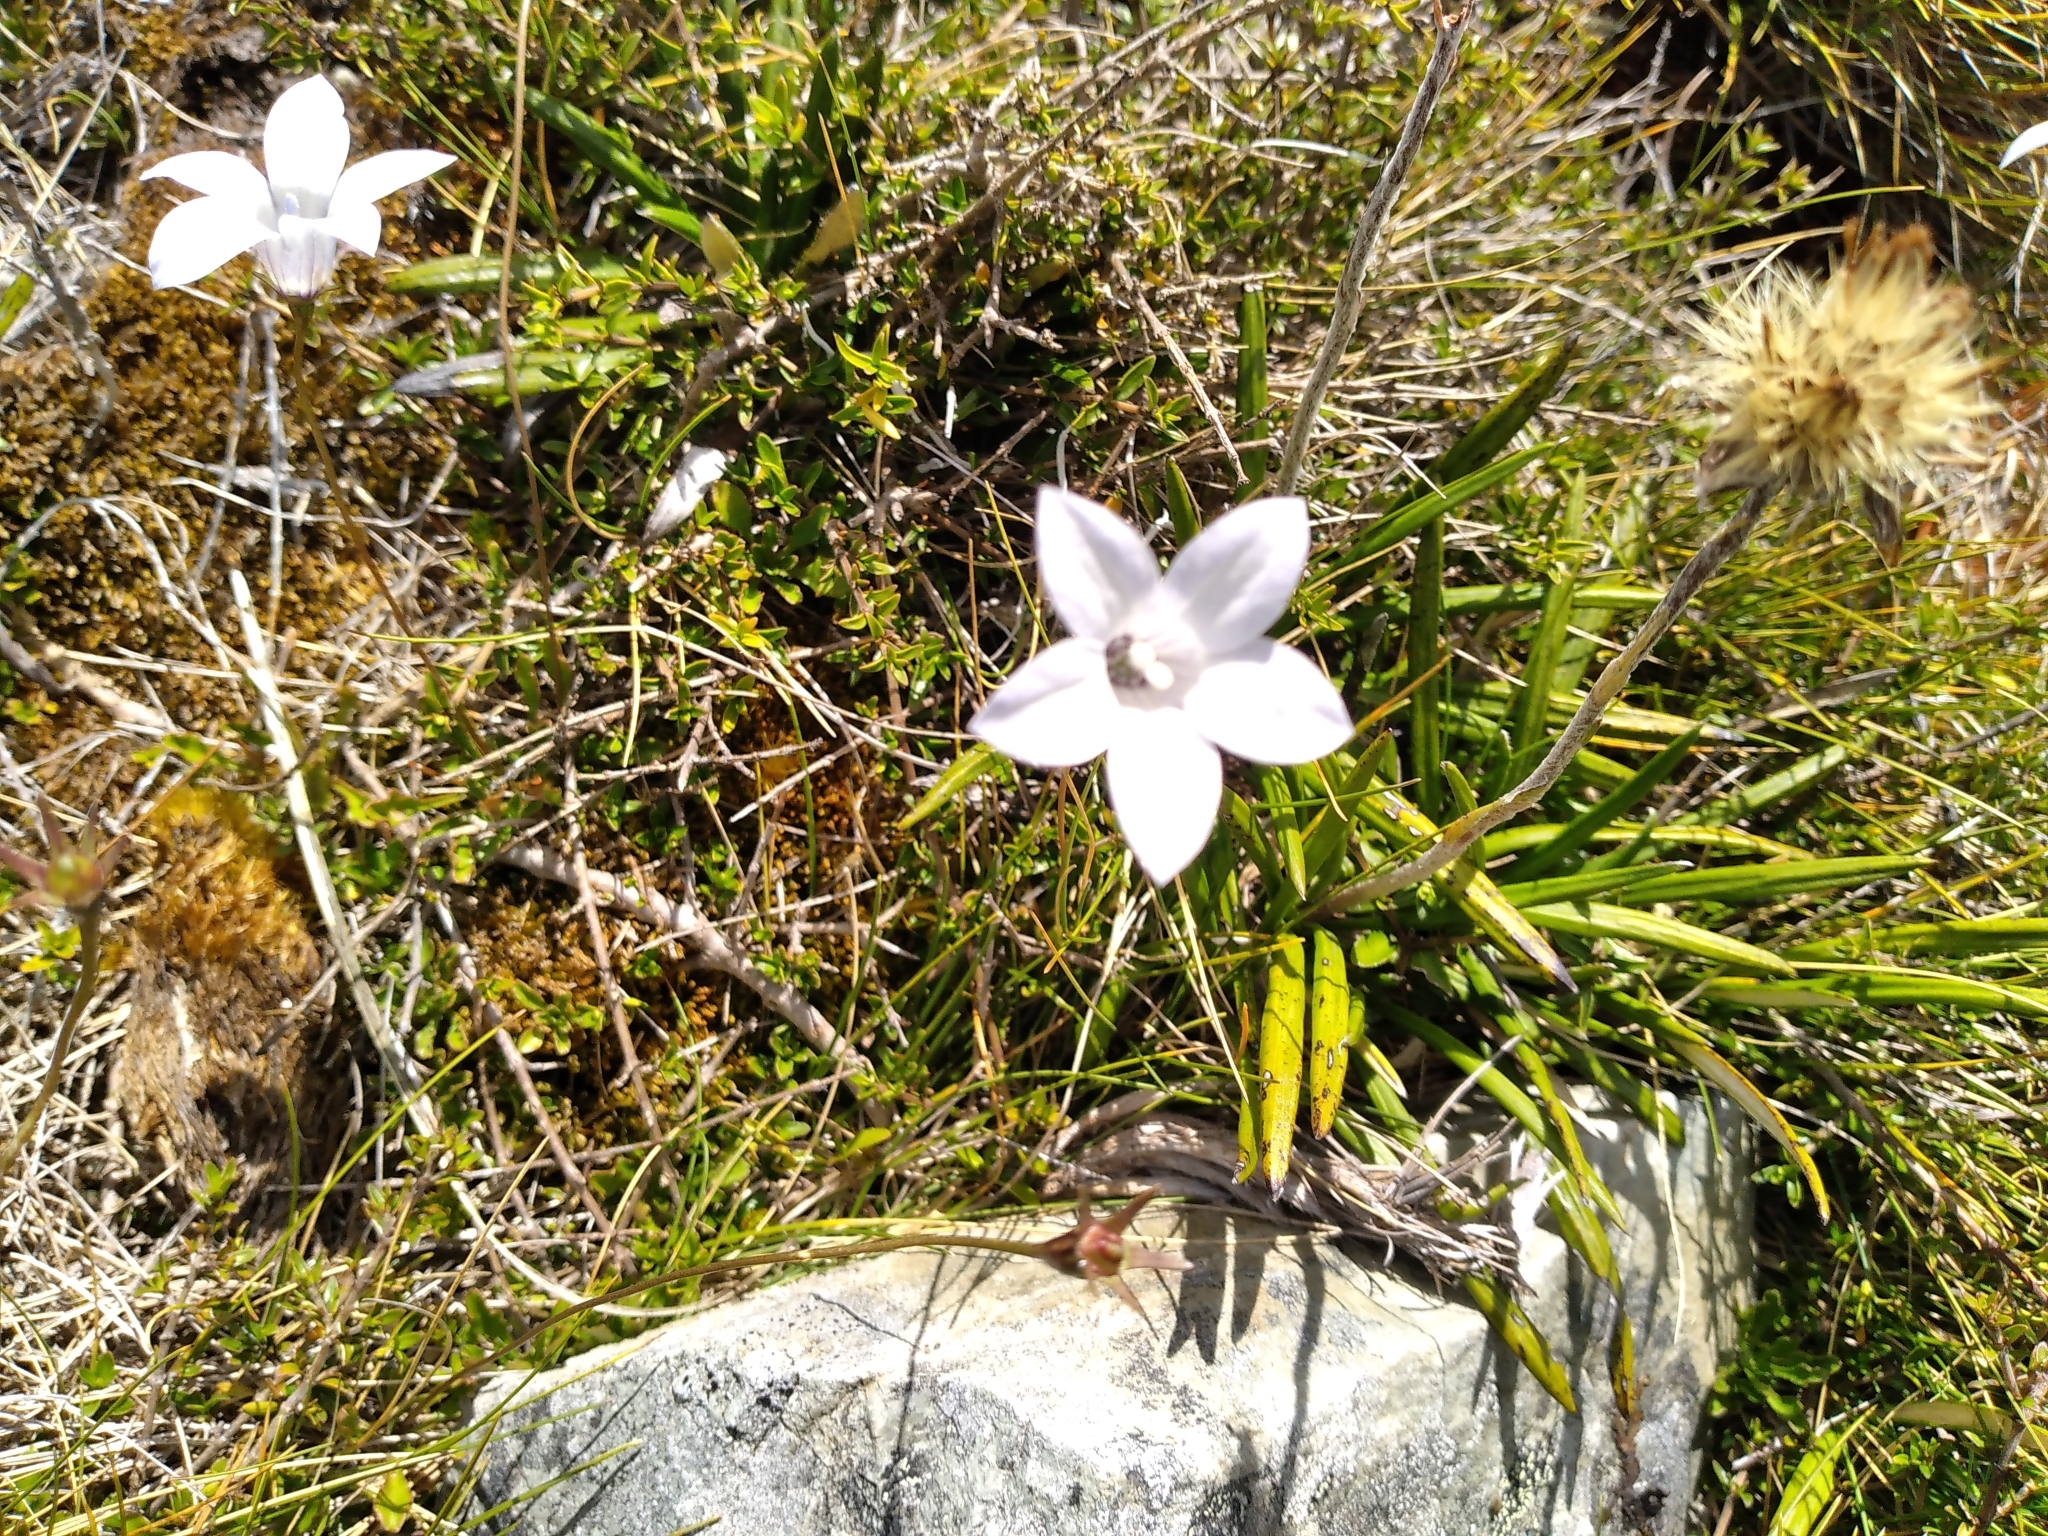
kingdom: Plantae
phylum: Tracheophyta
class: Magnoliopsida
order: Asterales
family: Campanulaceae
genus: Wahlenbergia
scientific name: Wahlenbergia albomarginata
